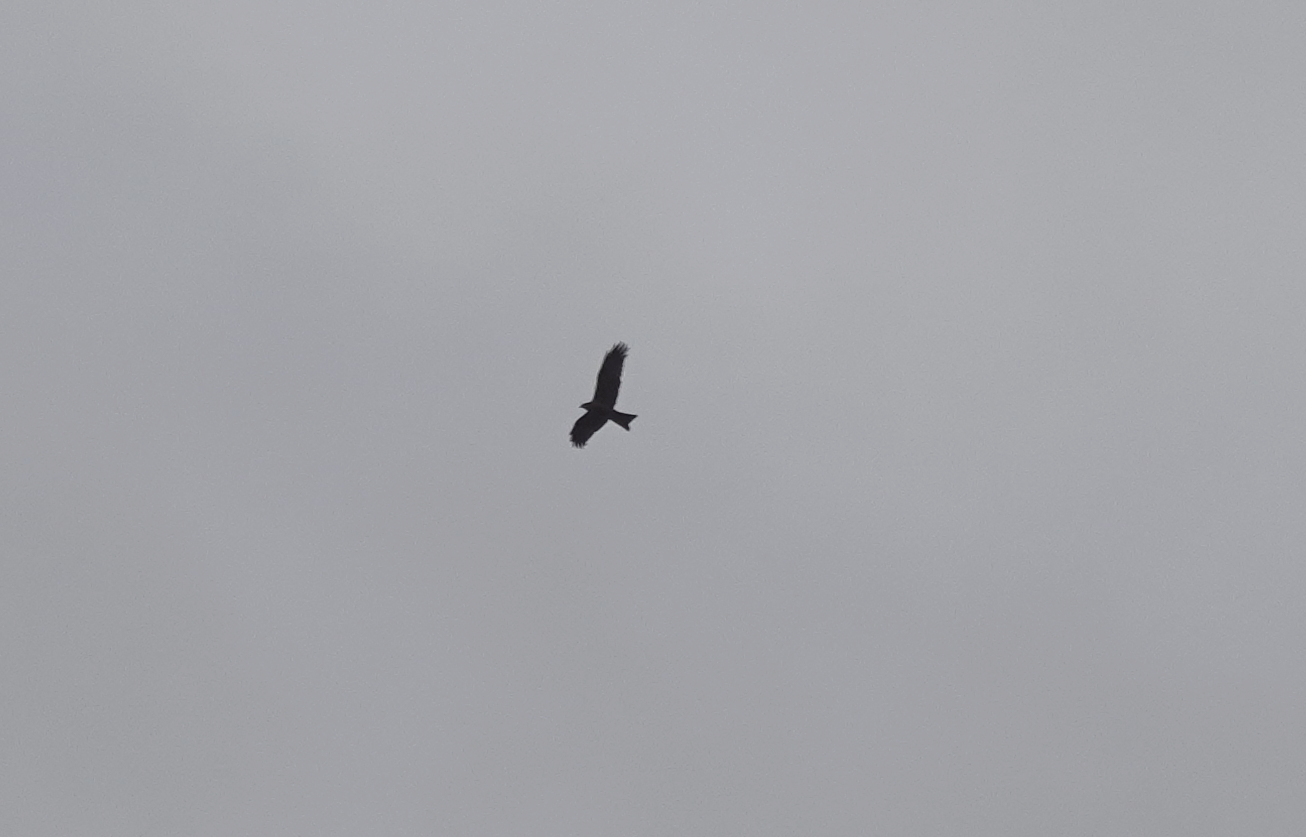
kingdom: Animalia
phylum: Chordata
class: Aves
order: Accipitriformes
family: Accipitridae
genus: Milvus
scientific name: Milvus migrans
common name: Black kite
